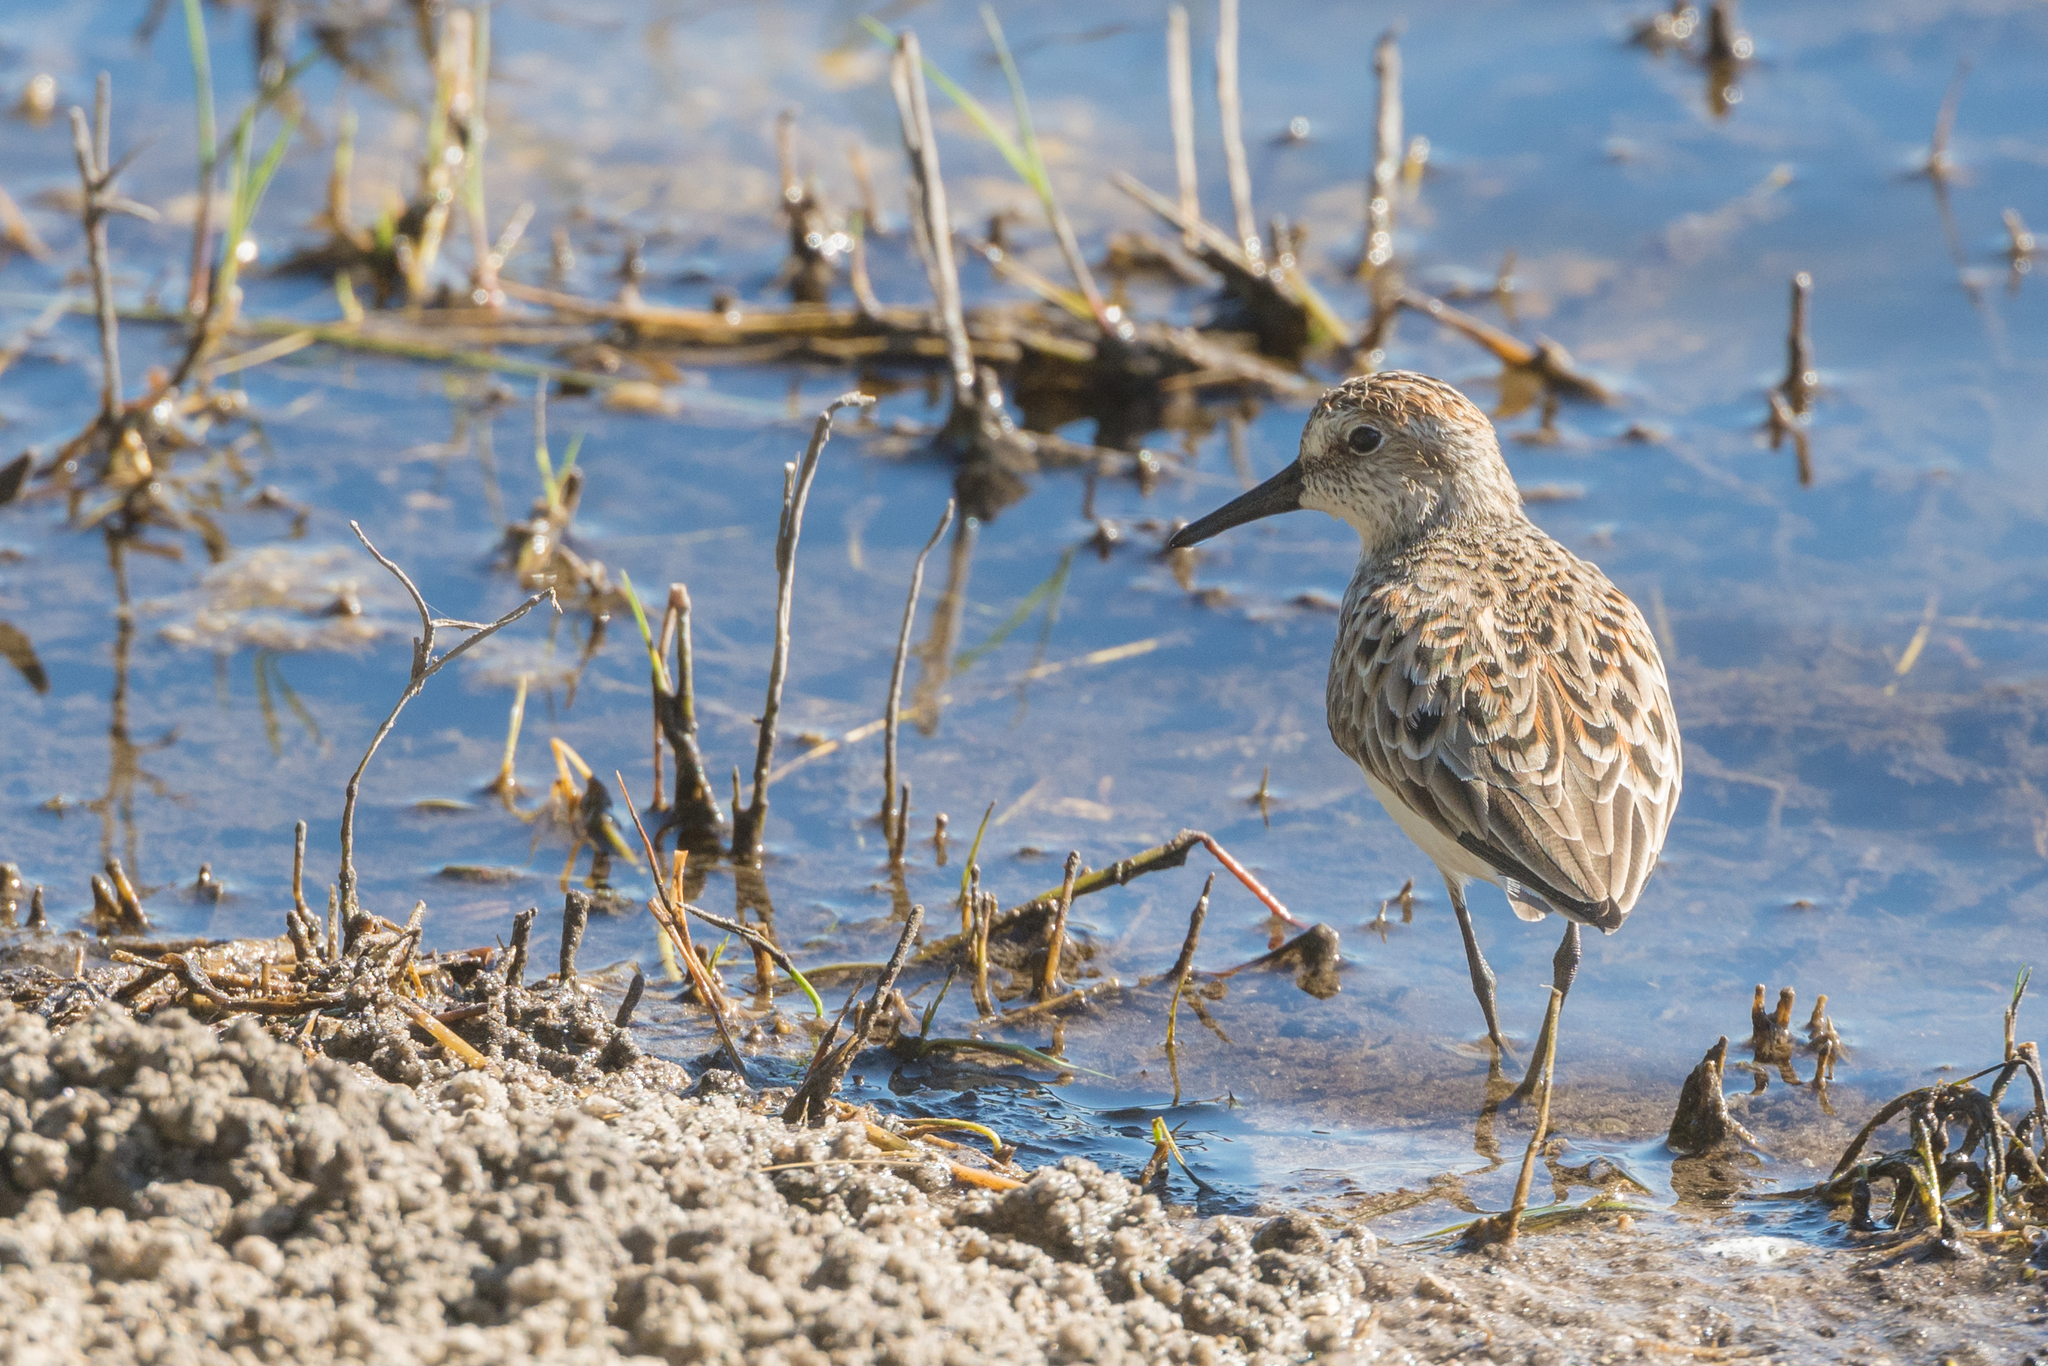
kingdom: Animalia
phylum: Chordata
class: Aves
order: Charadriiformes
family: Scolopacidae
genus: Calidris
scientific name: Calidris mauri
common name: Western sandpiper
